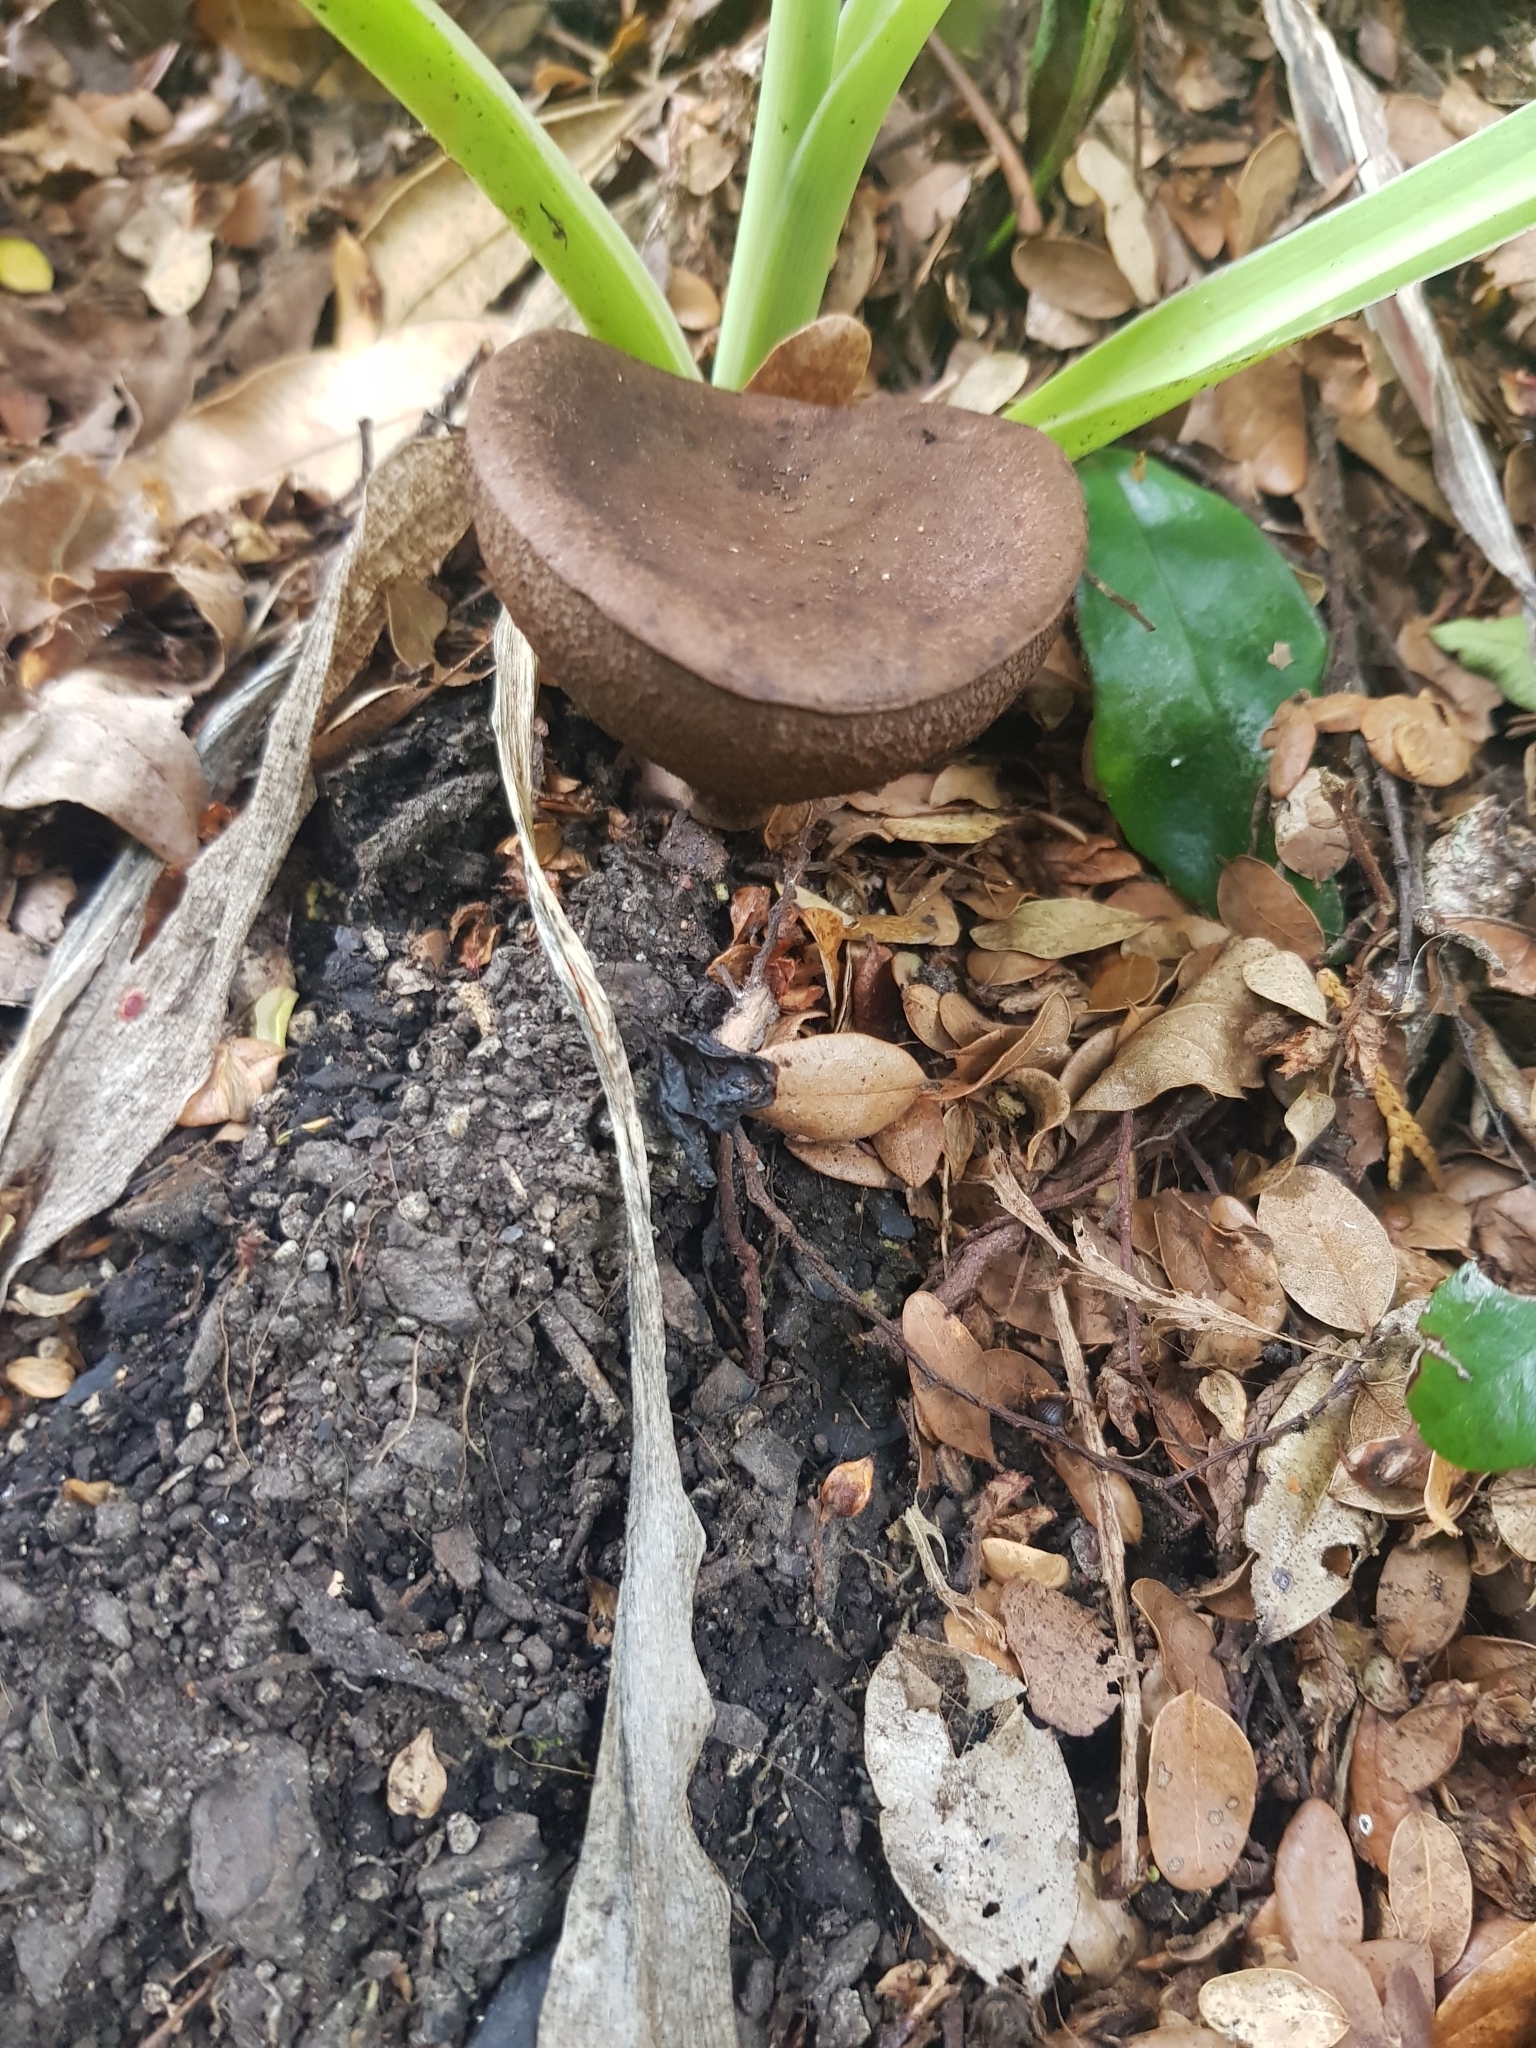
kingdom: Fungi
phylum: Basidiomycota
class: Agaricomycetes
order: Boletales
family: Boletaceae
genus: Porphyrellus
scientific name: Porphyrellus brunneus
